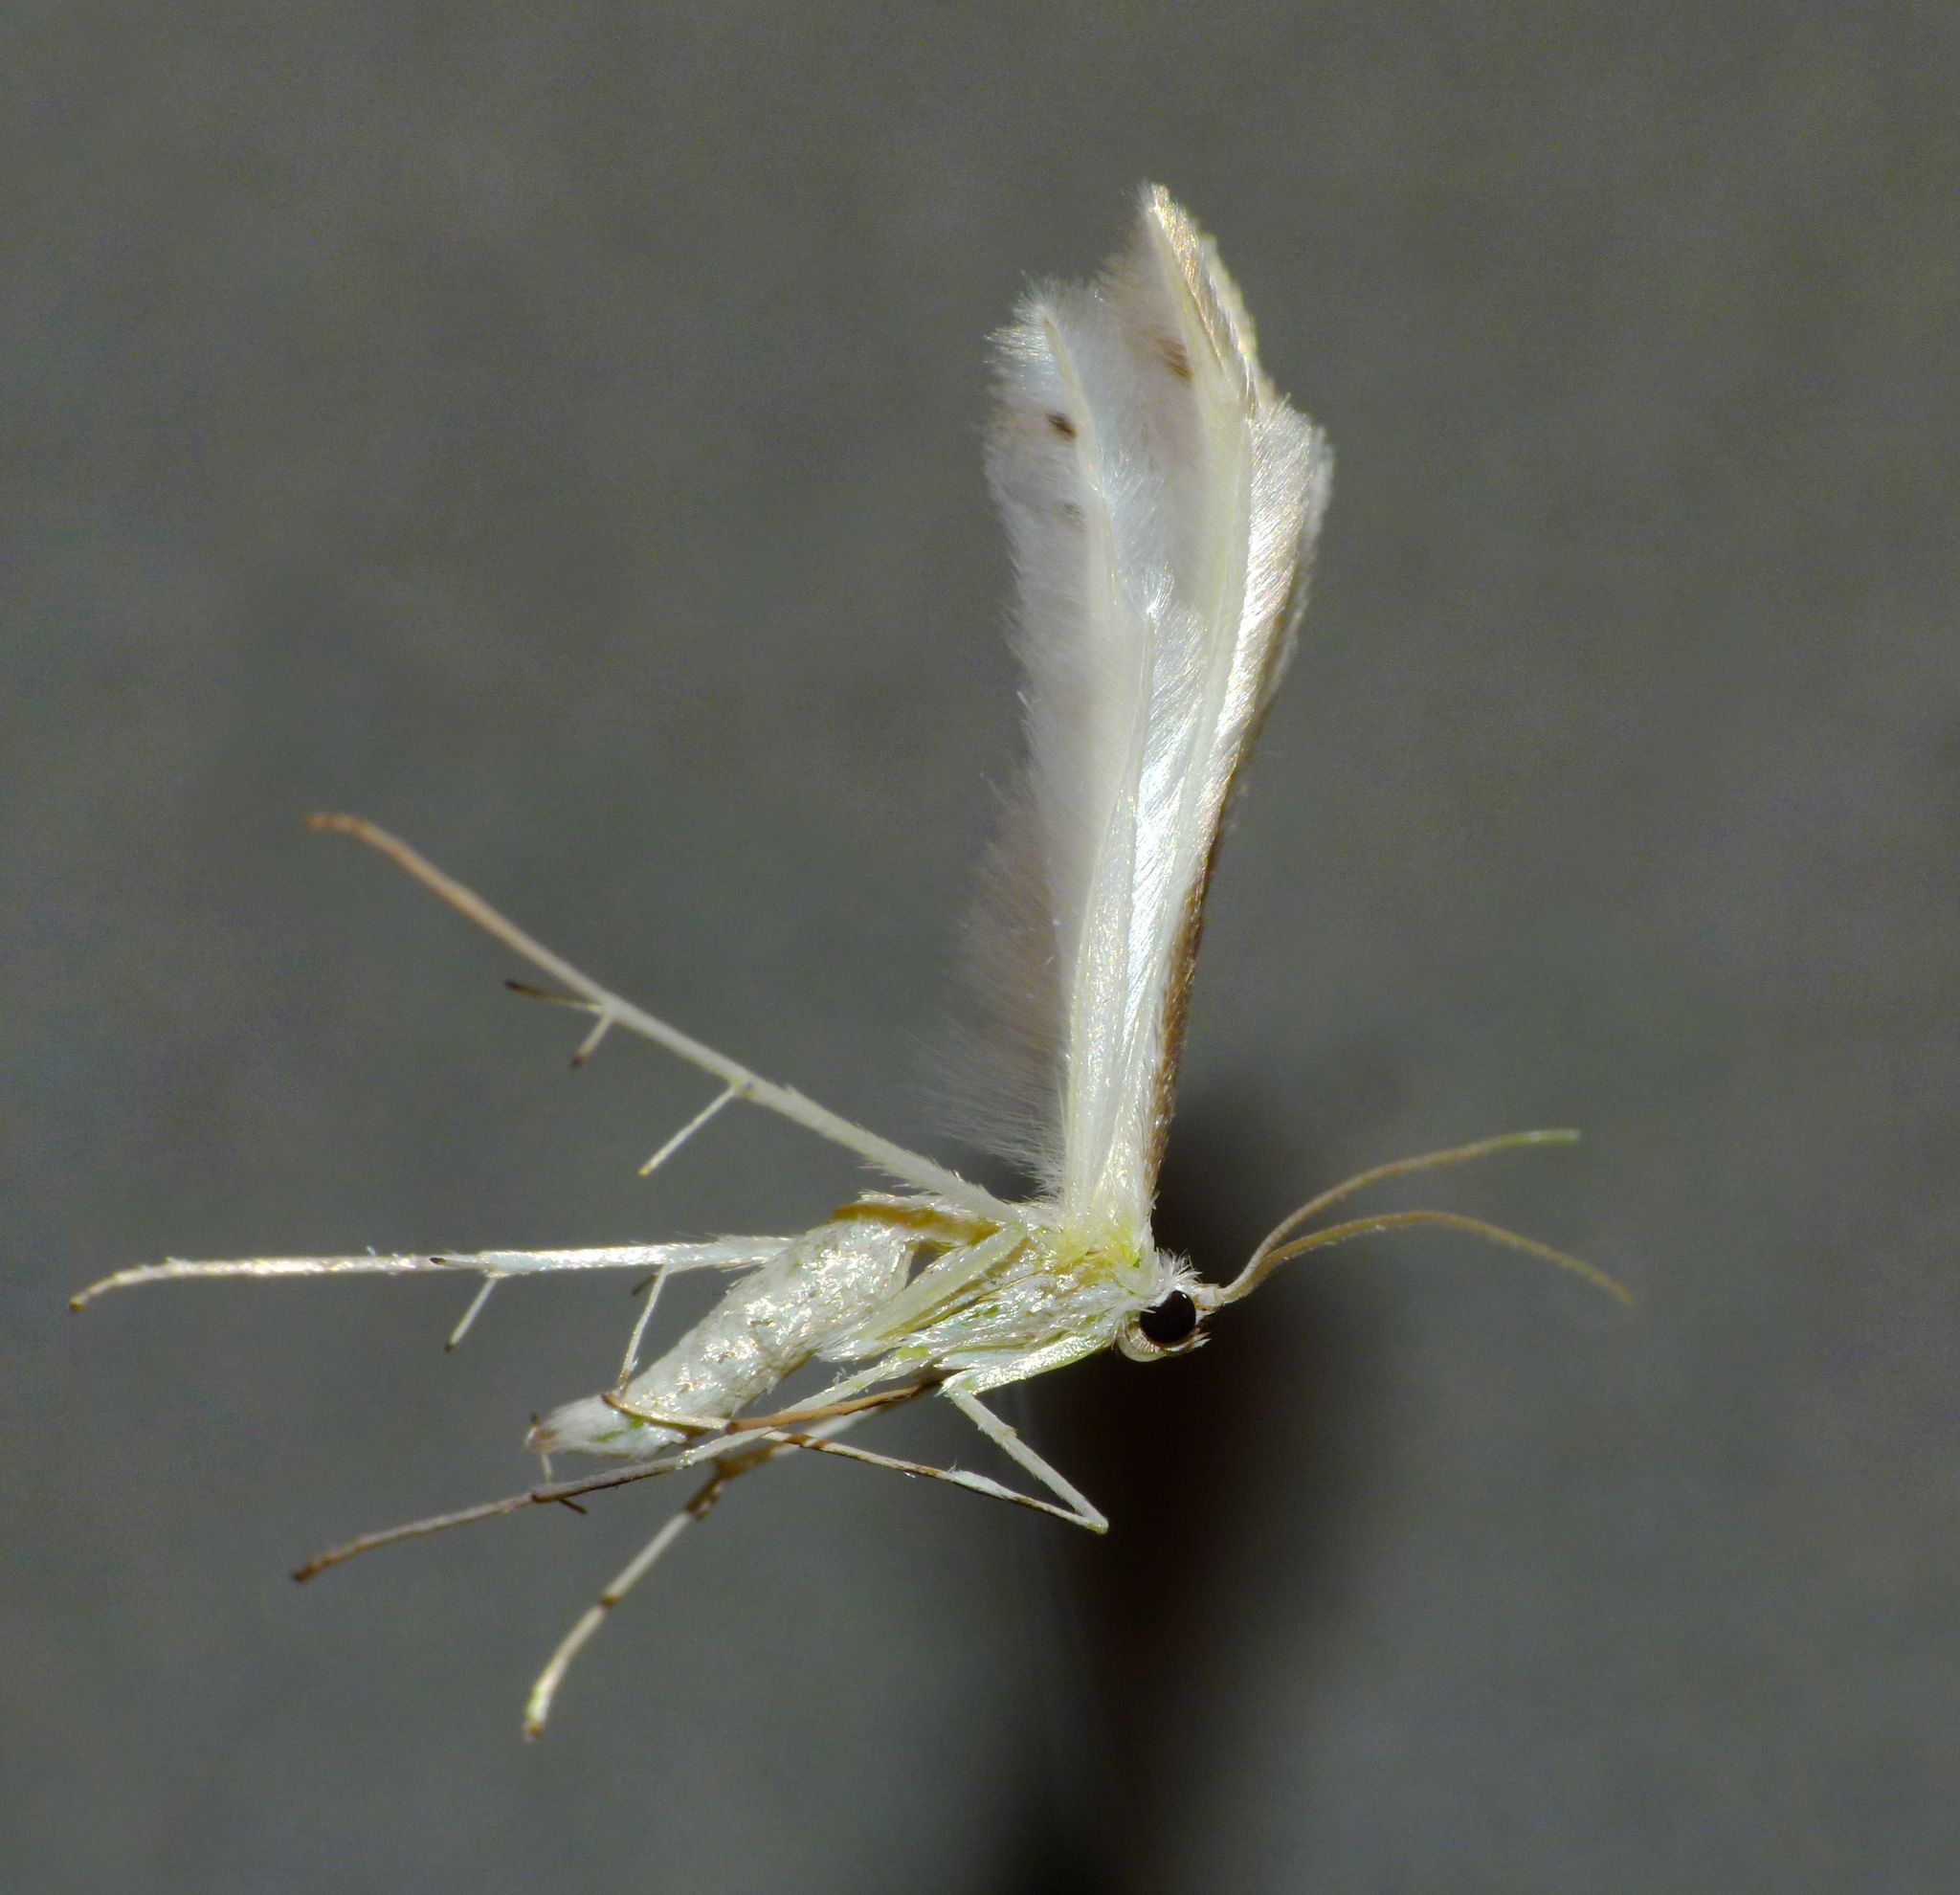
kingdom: Animalia
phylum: Arthropoda
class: Insecta
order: Lepidoptera
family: Pterophoridae
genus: Pterophorus
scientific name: Pterophorus monospilalis
